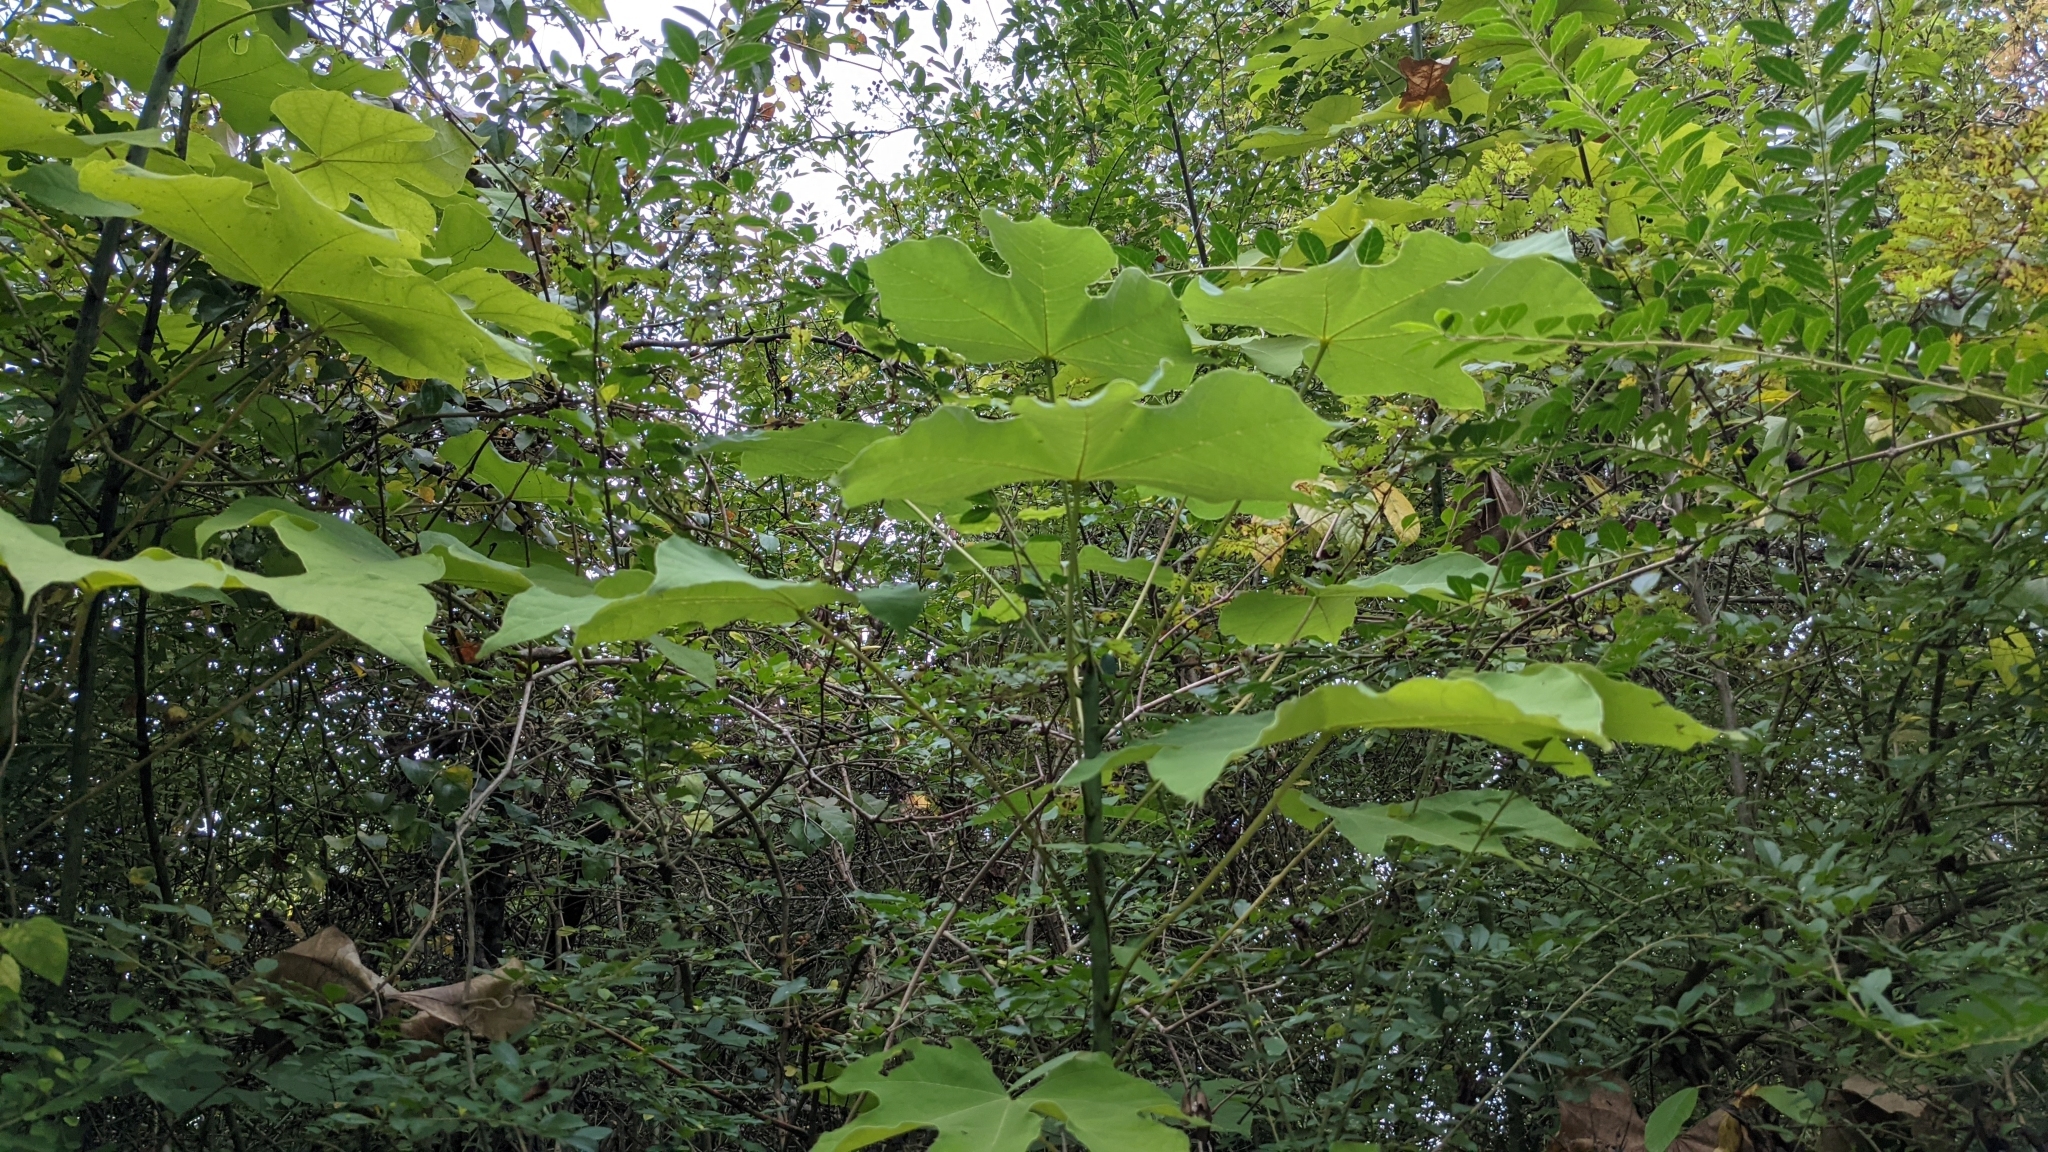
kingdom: Plantae
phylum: Tracheophyta
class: Magnoliopsida
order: Malvales
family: Malvaceae
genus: Firmiana
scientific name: Firmiana simplex
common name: Chinese parasoltree
